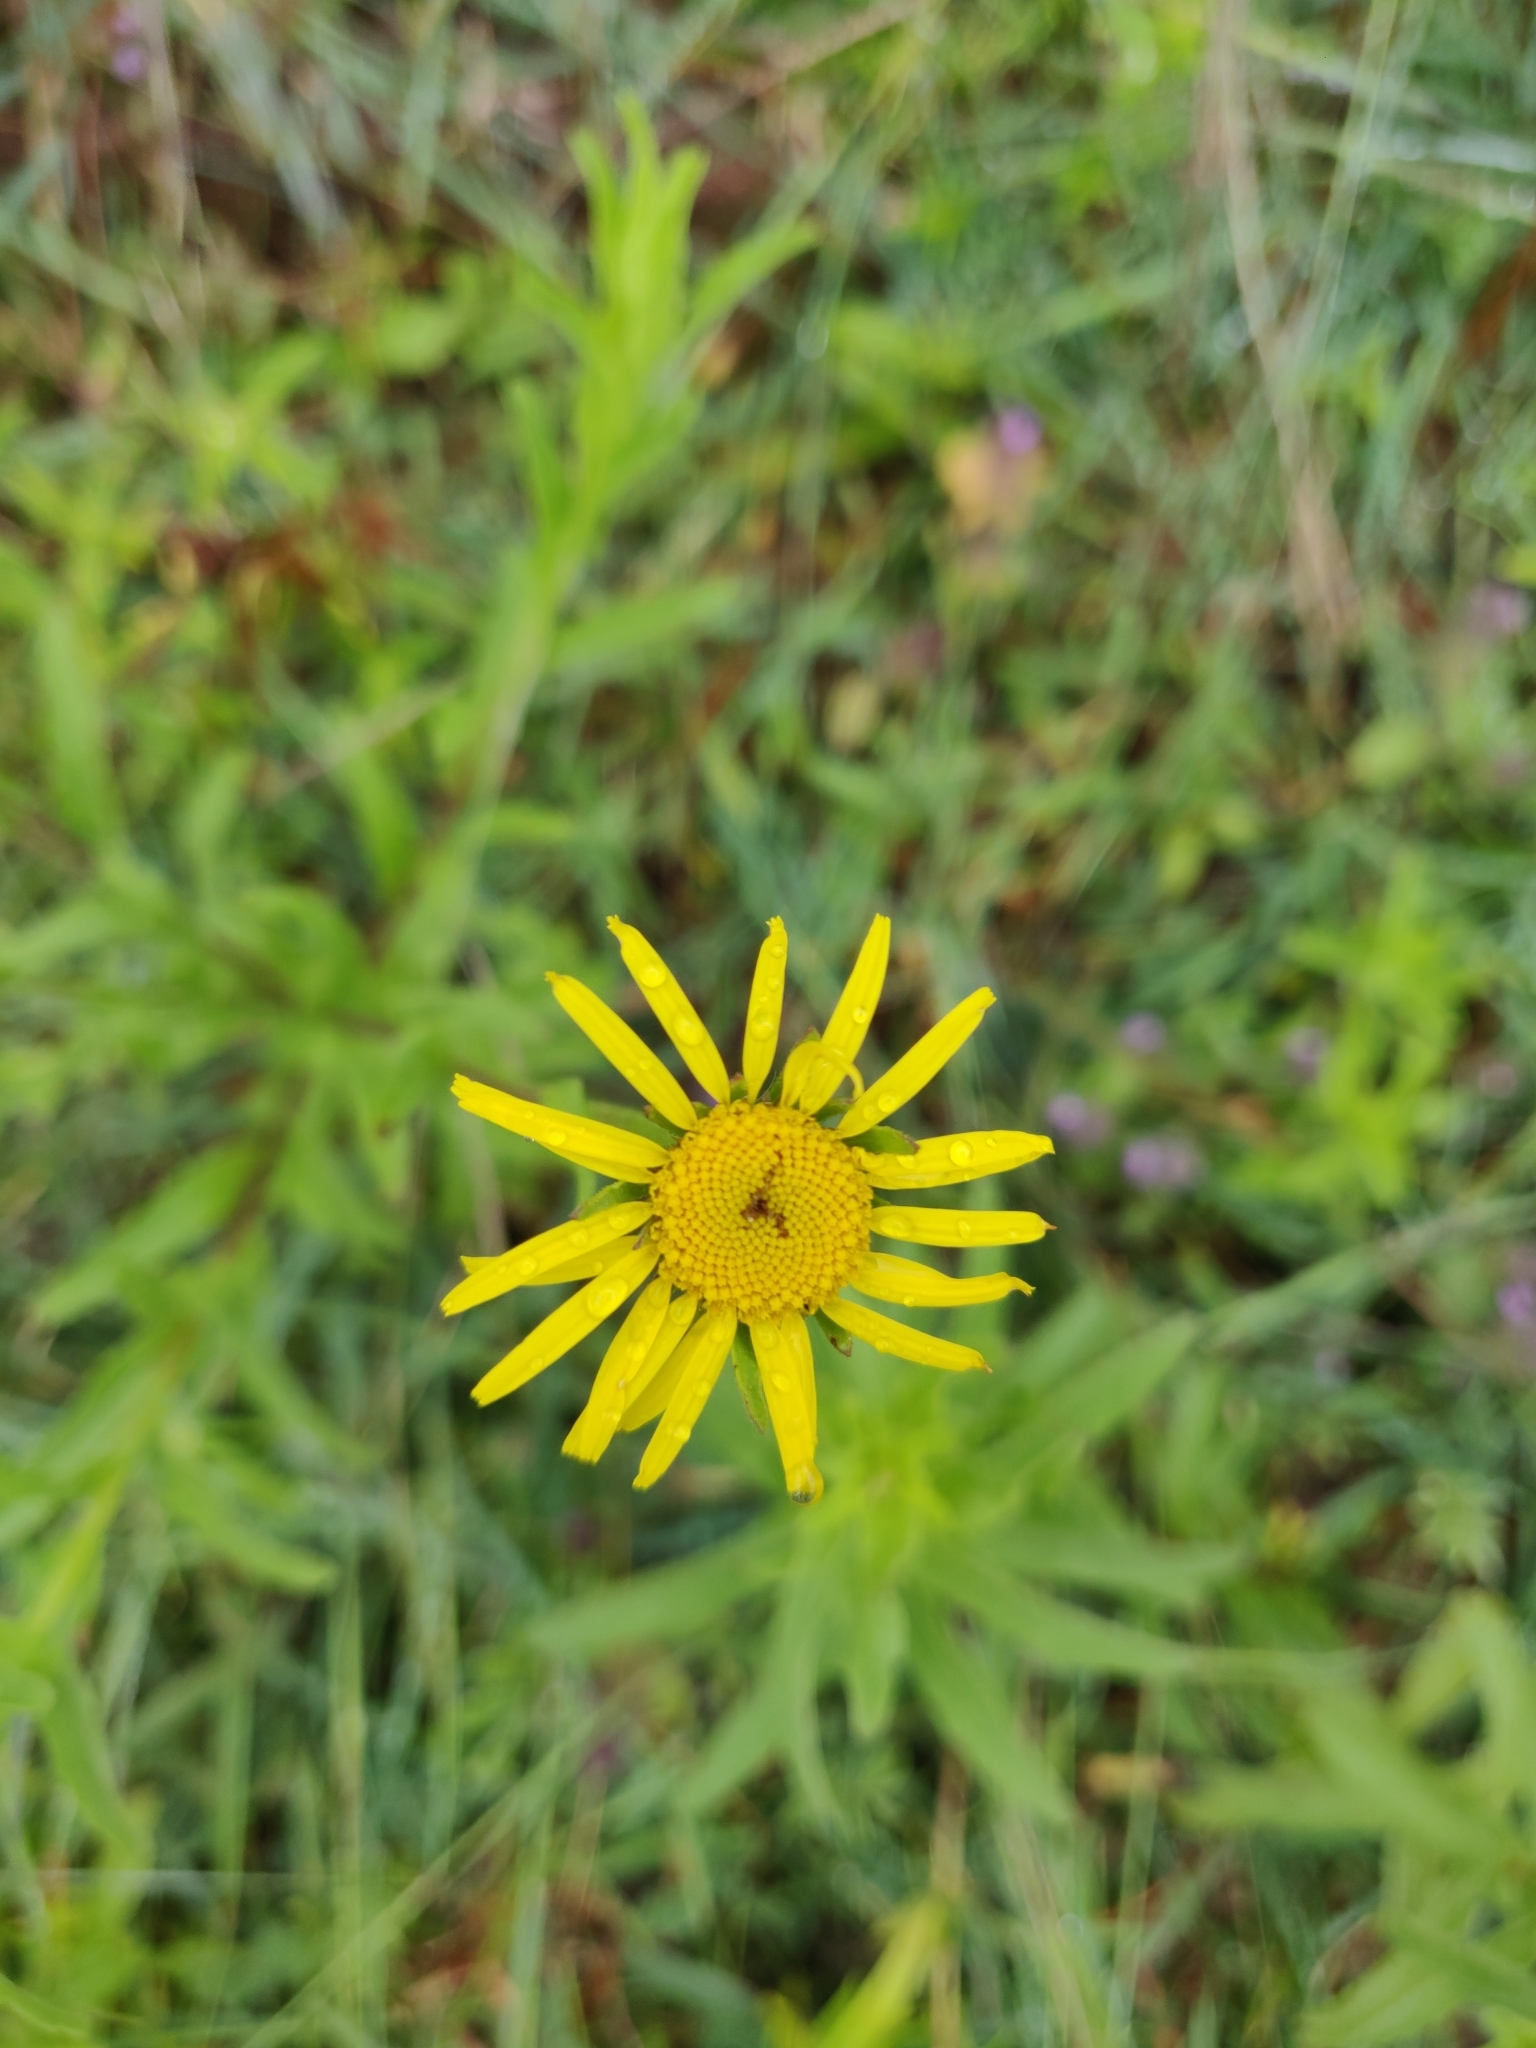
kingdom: Plantae
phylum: Tracheophyta
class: Magnoliopsida
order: Asterales
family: Asteraceae
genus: Pulicaria
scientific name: Pulicaria wightiana
